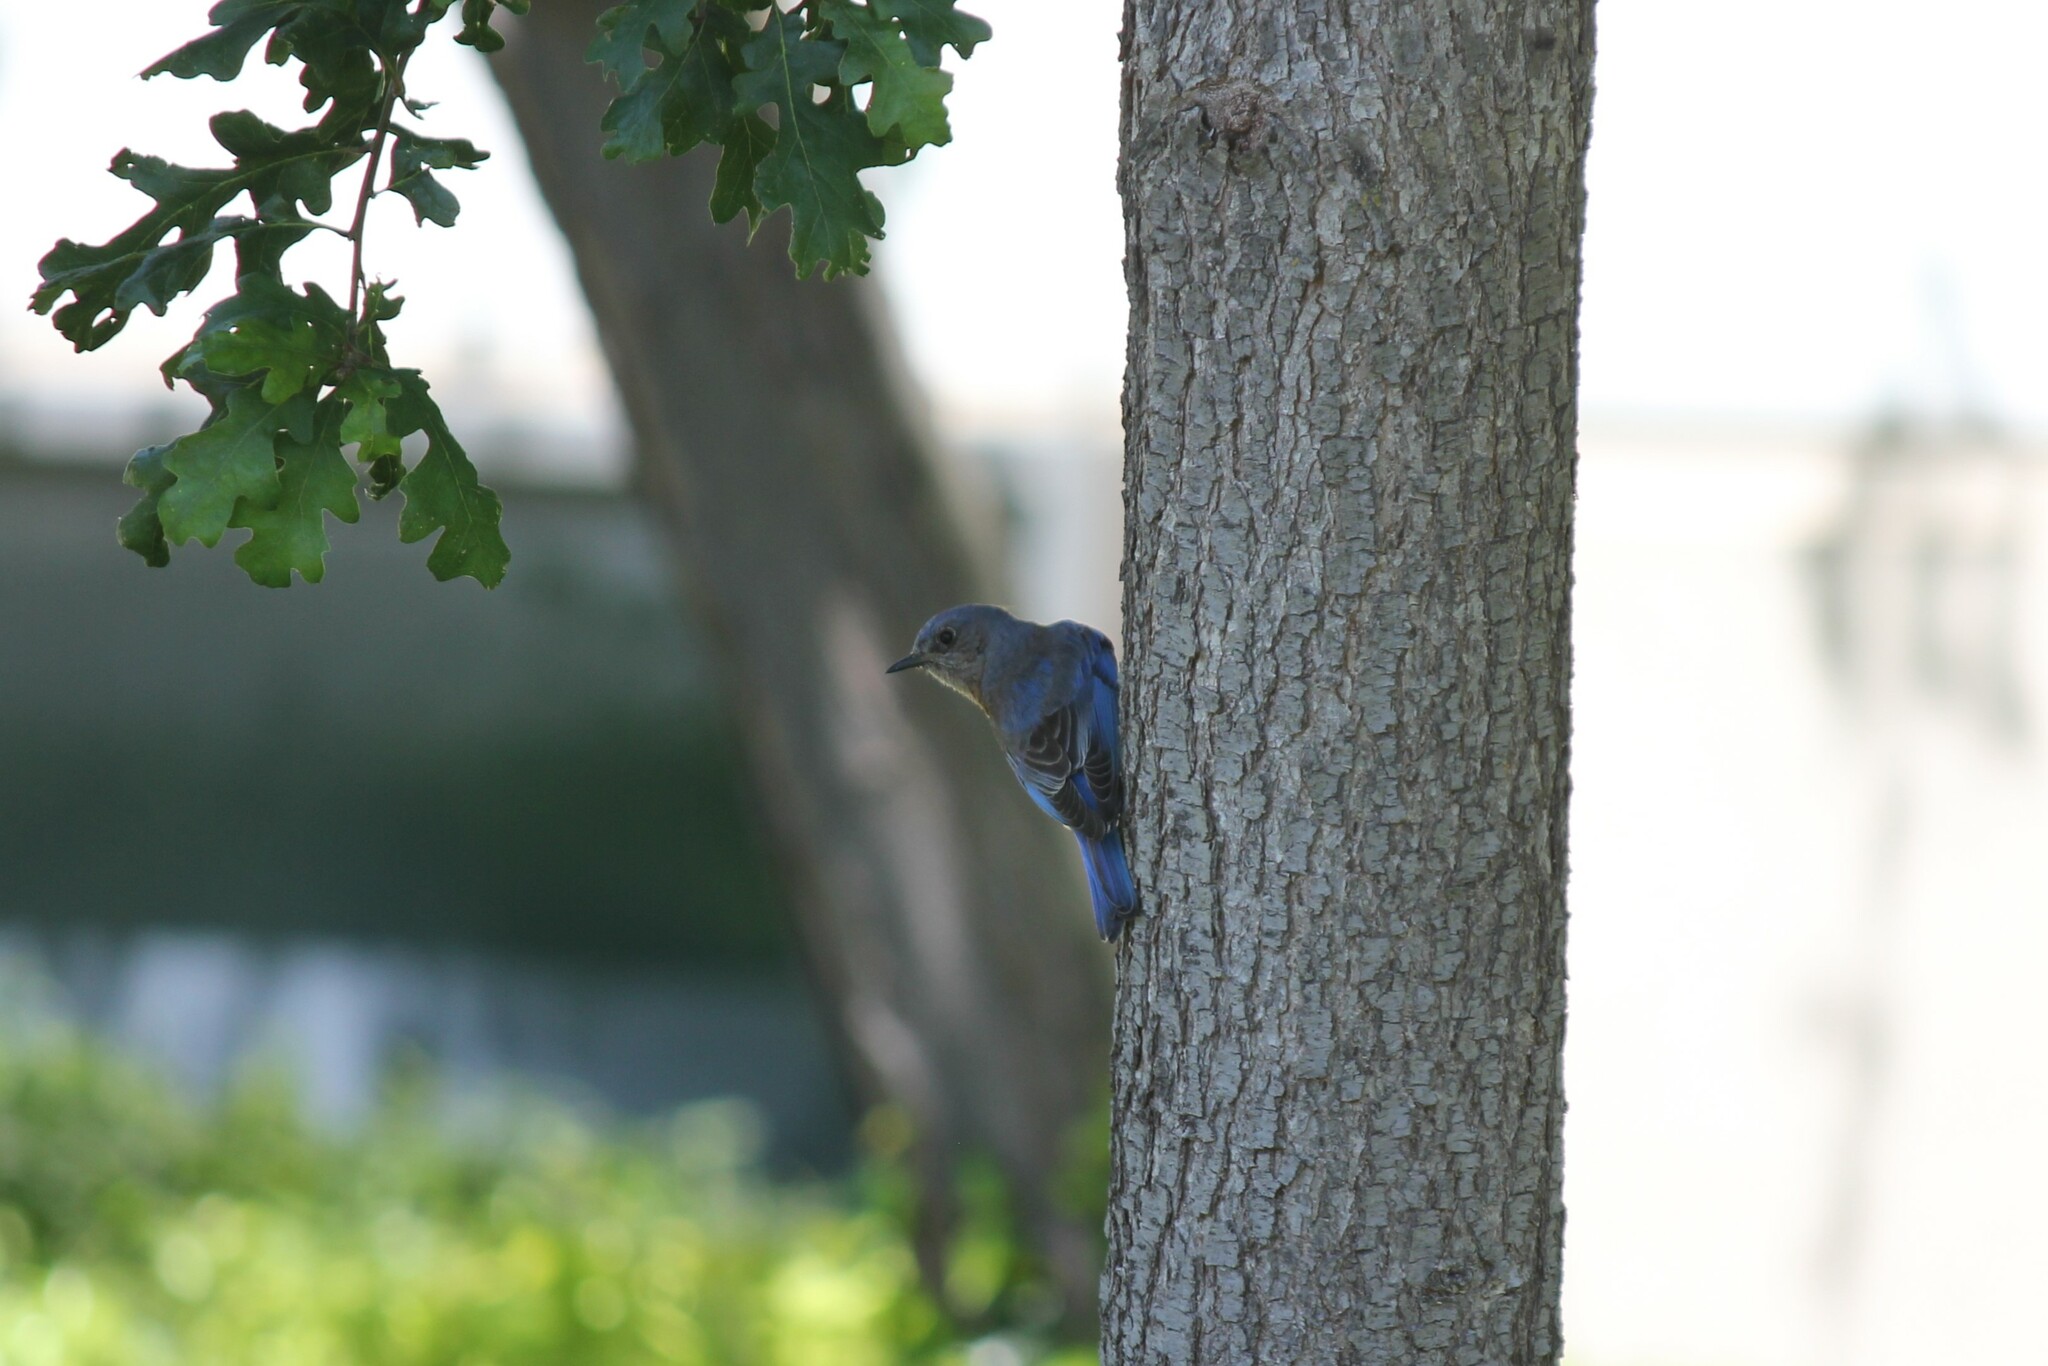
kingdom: Animalia
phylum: Chordata
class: Aves
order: Passeriformes
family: Turdidae
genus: Sialia
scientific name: Sialia mexicana
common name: Western bluebird
